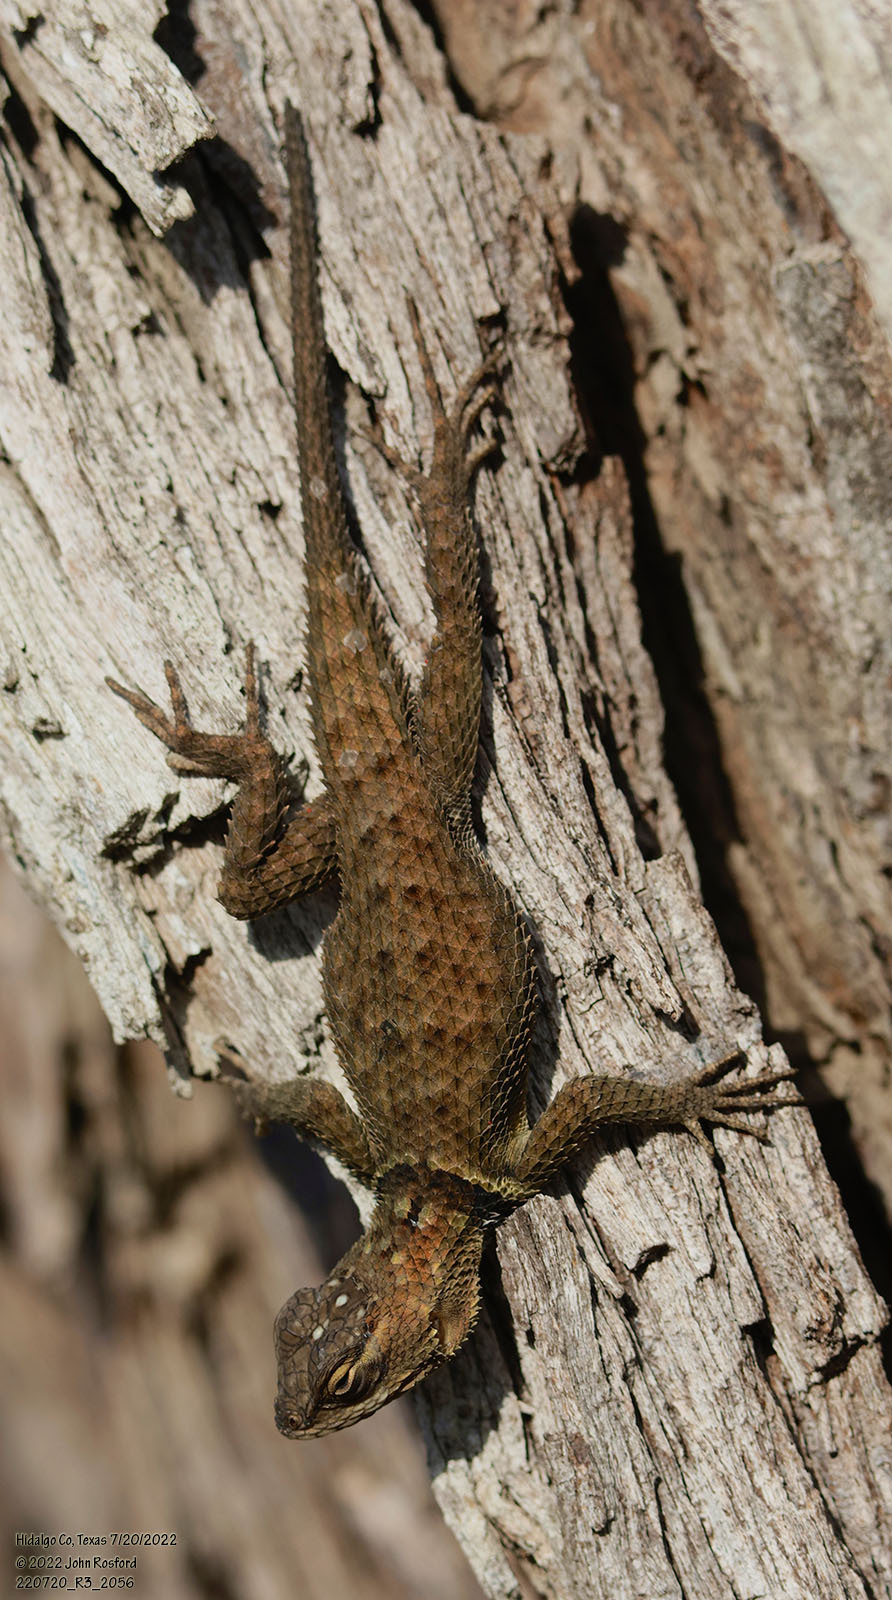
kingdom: Animalia
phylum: Chordata
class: Squamata
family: Phrynosomatidae
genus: Sceloporus
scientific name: Sceloporus cyanogenys
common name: Blue spiny lizard
